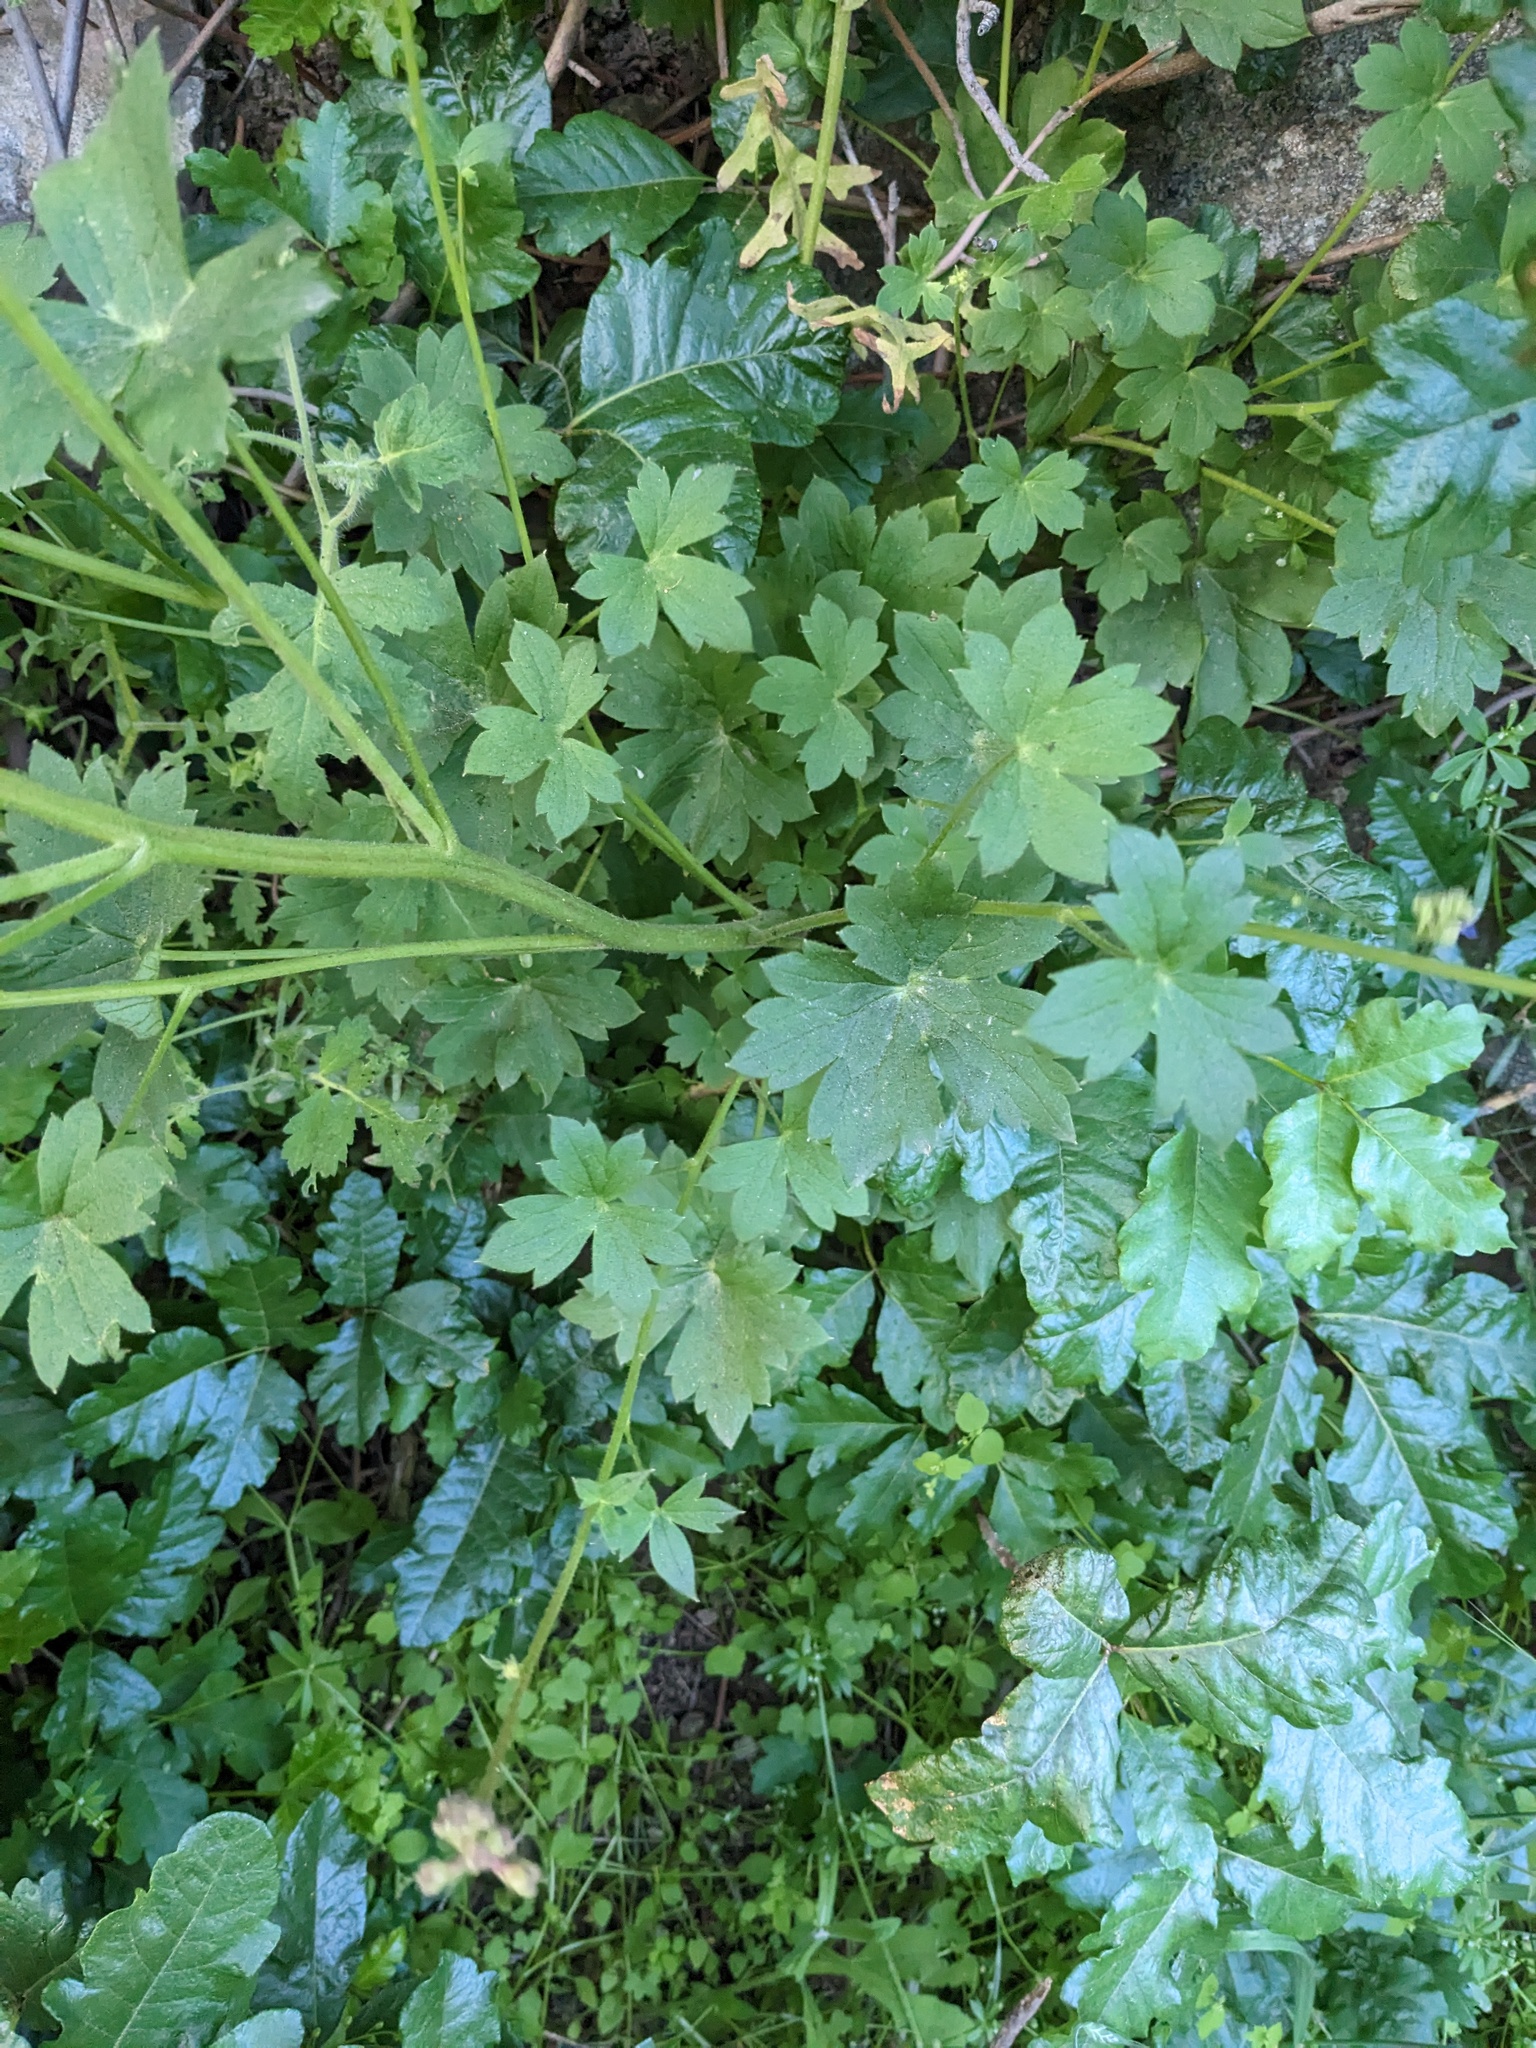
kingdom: Plantae
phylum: Tracheophyta
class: Magnoliopsida
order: Ranunculales
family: Ranunculaceae
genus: Delphinium
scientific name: Delphinium purpusii
